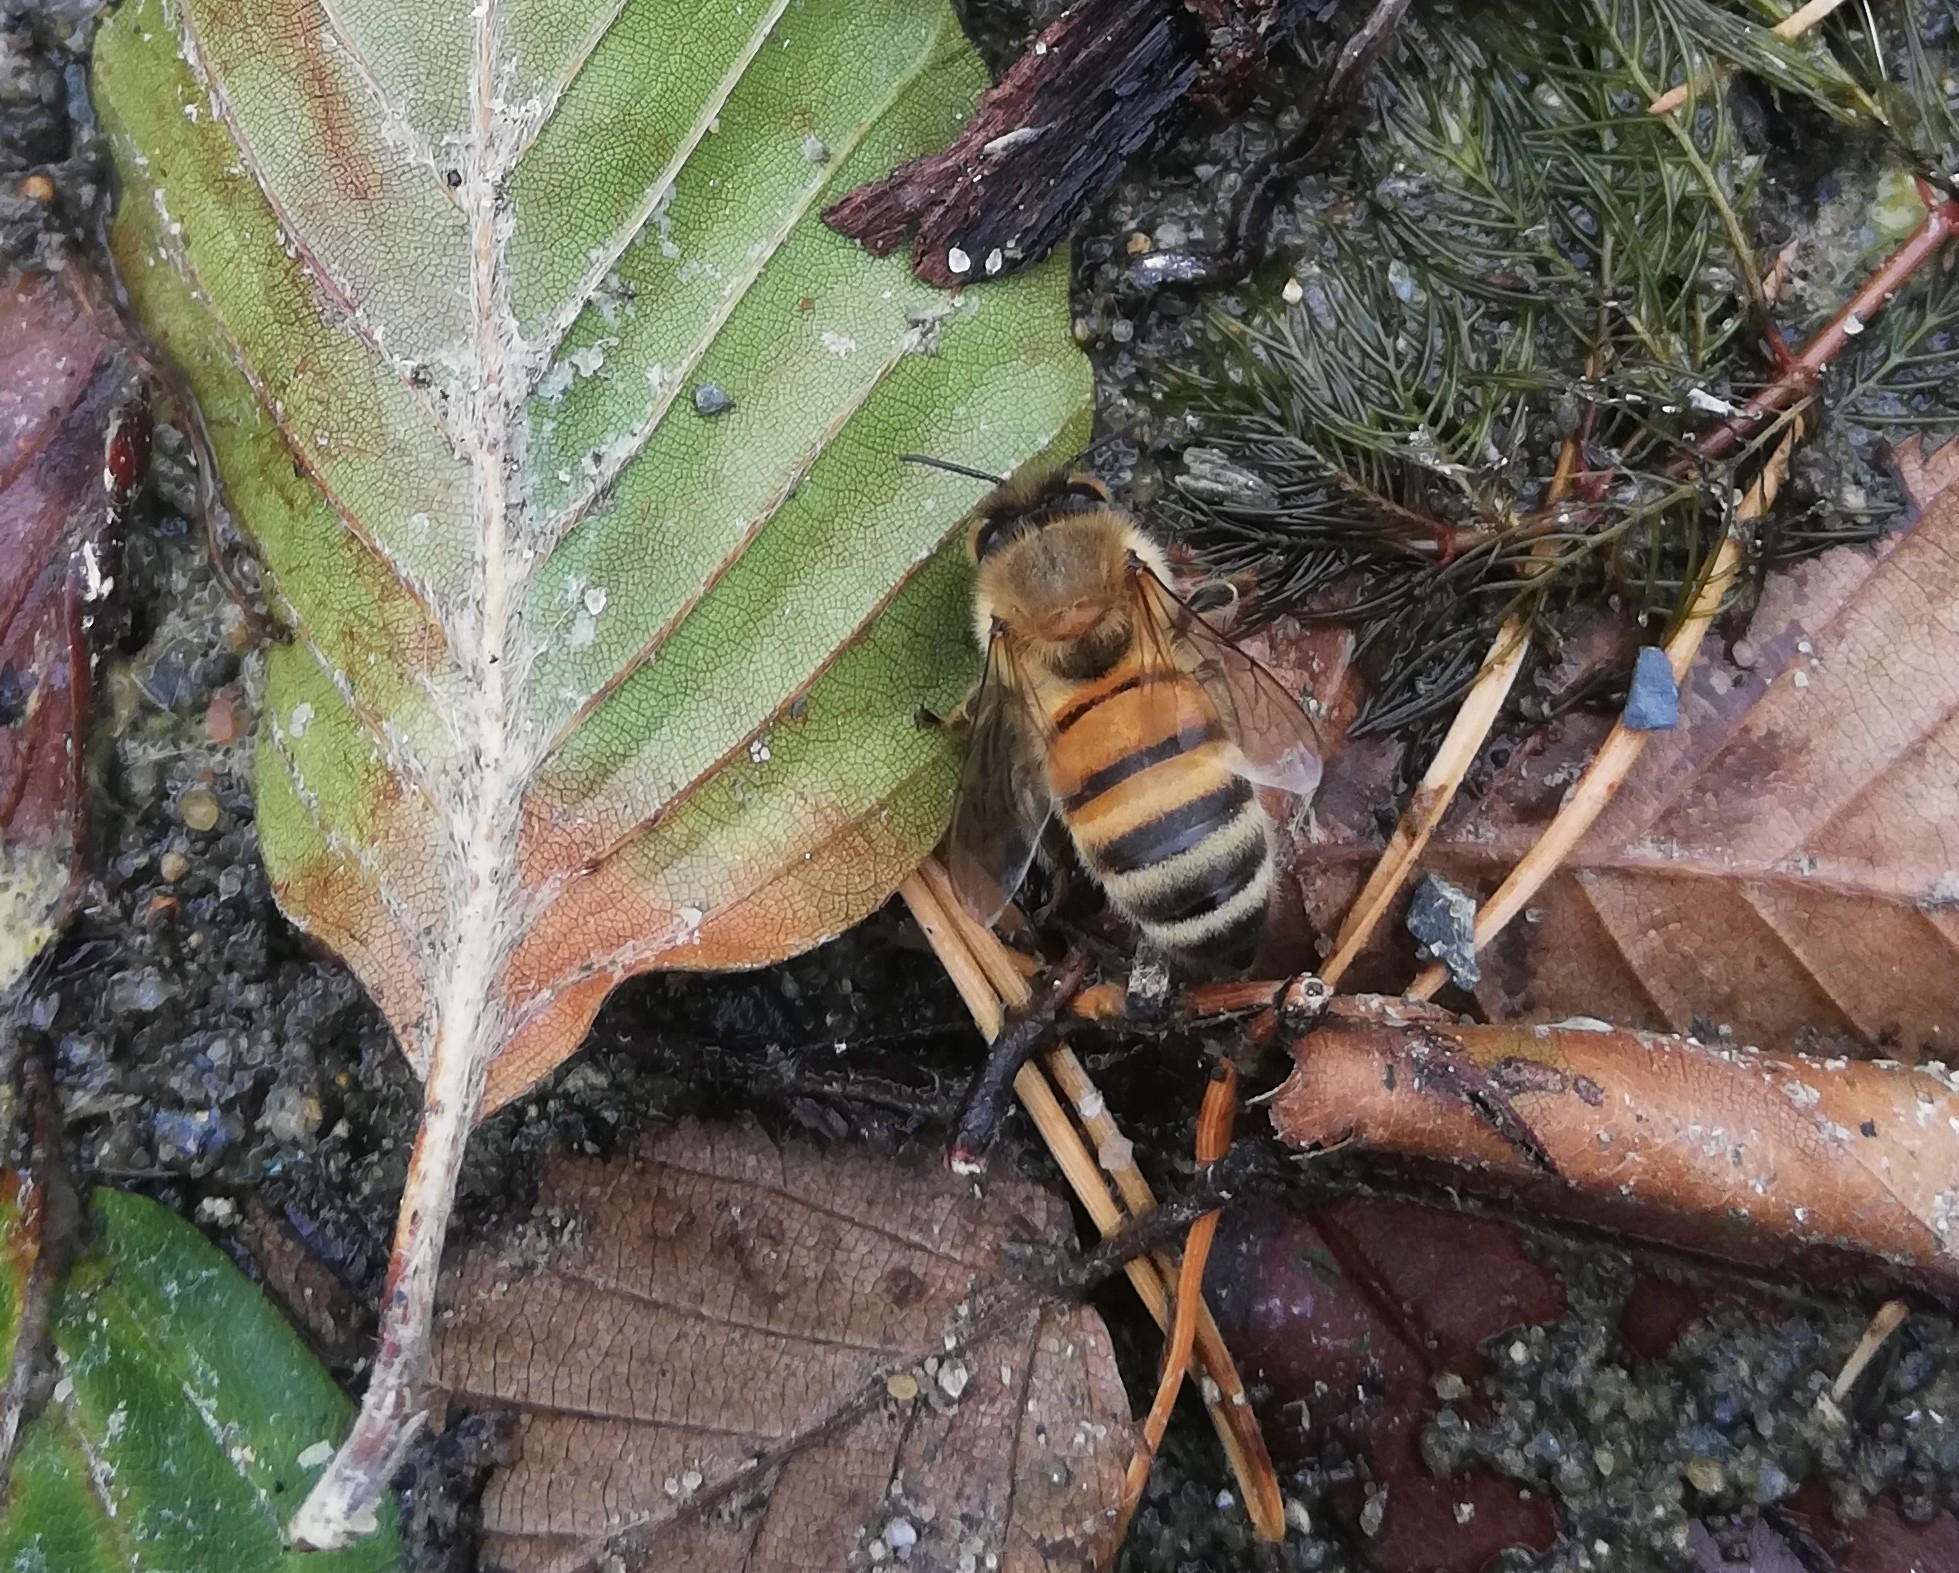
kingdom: Animalia
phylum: Arthropoda
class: Insecta
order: Hymenoptera
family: Apidae
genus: Apis
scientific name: Apis mellifera
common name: Honey bee
